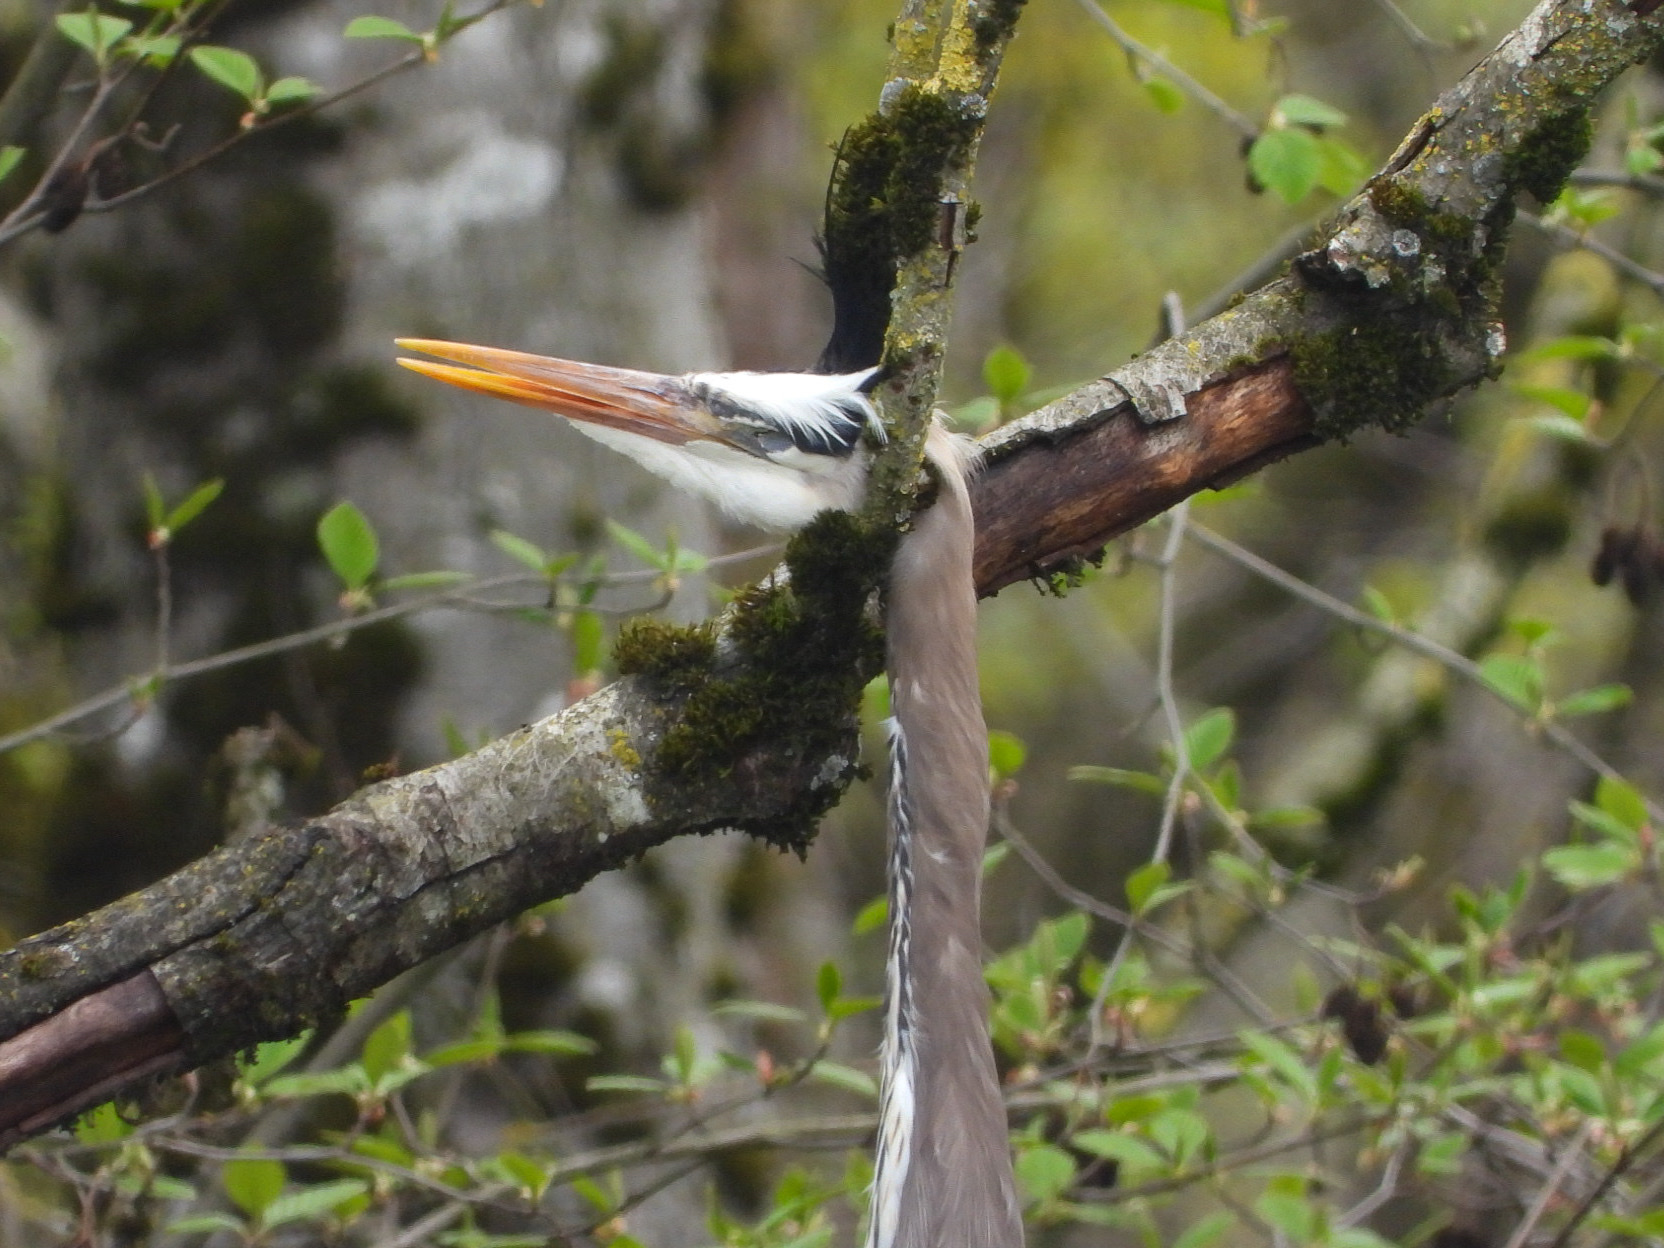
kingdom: Animalia
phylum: Chordata
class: Aves
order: Pelecaniformes
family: Ardeidae
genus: Ardea
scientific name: Ardea herodias
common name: Great blue heron
